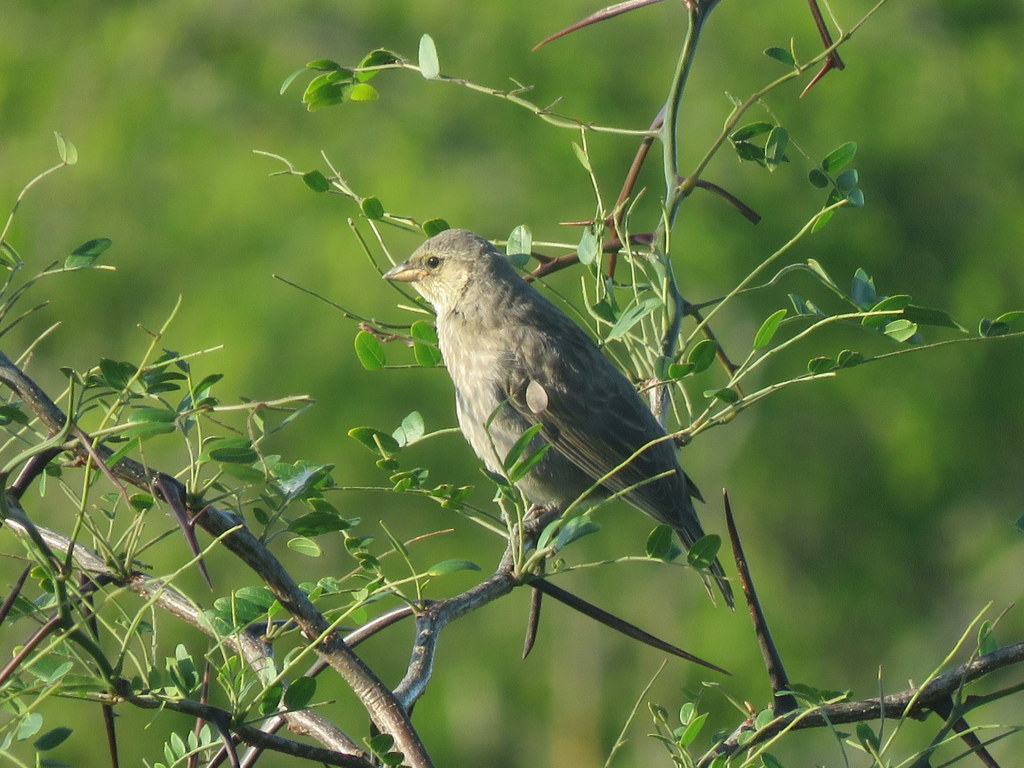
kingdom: Animalia
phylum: Chordata
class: Aves
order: Passeriformes
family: Icteridae
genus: Molothrus
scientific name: Molothrus bonariensis
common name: Shiny cowbird
